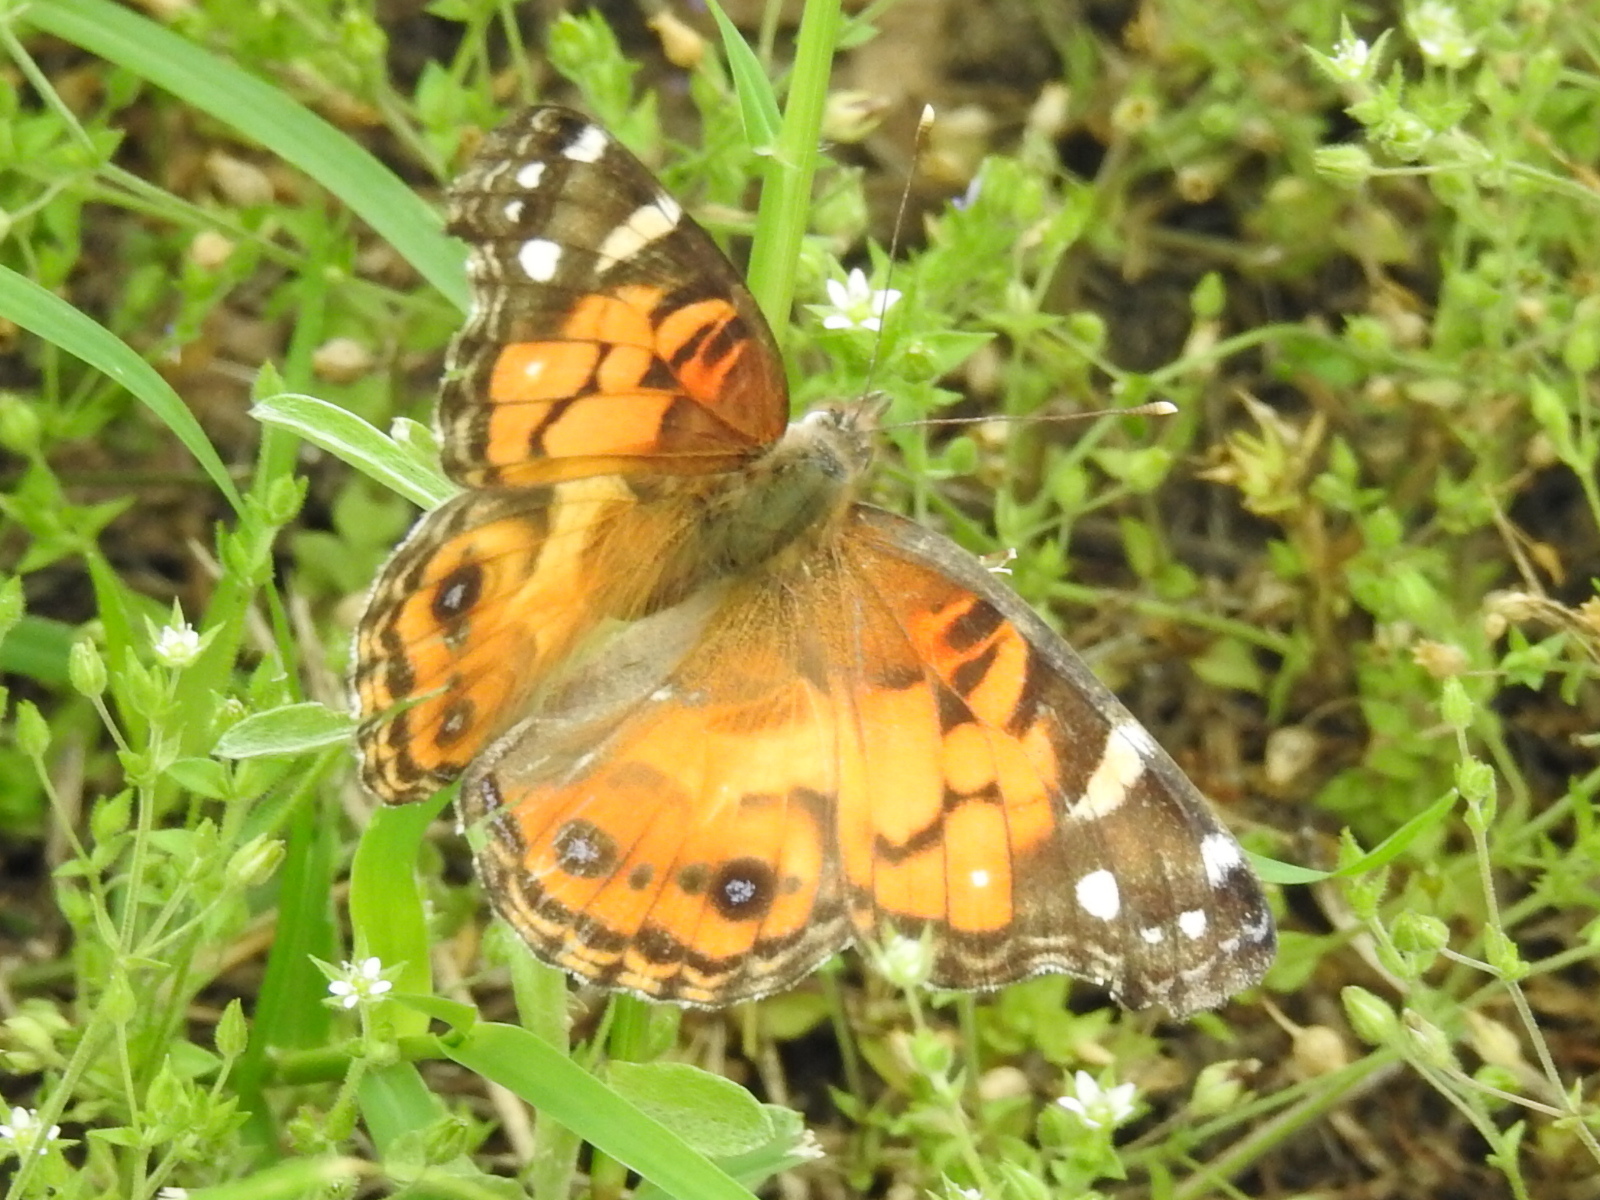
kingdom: Animalia
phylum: Arthropoda
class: Insecta
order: Lepidoptera
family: Nymphalidae
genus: Vanessa
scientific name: Vanessa virginiensis
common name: American lady
